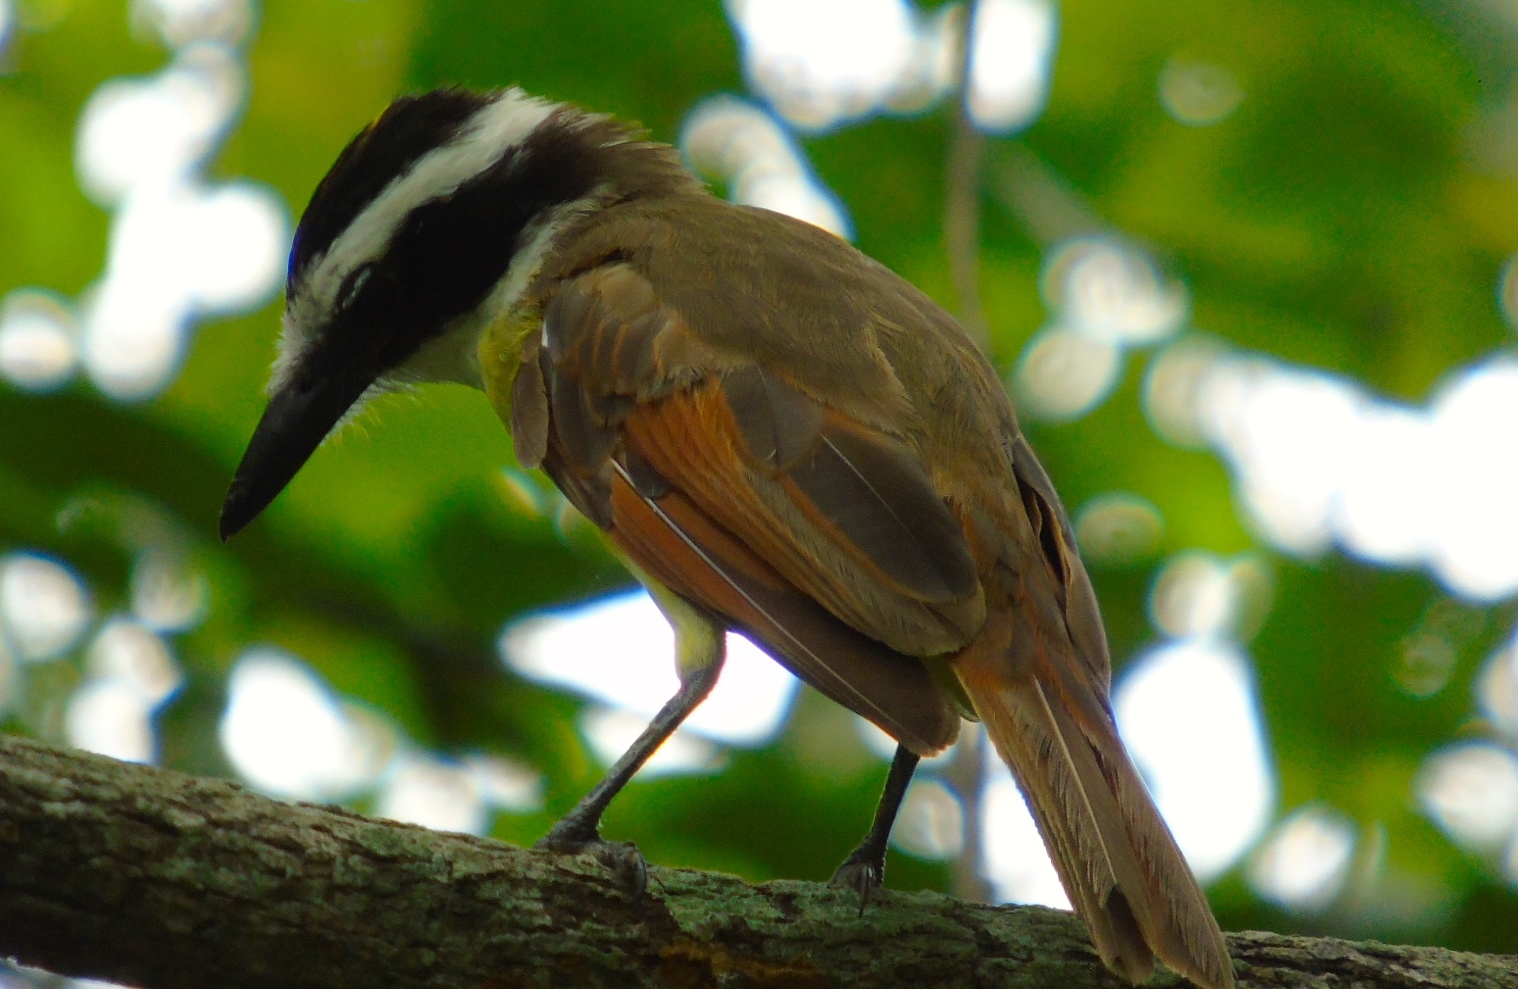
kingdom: Animalia
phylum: Chordata
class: Aves
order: Passeriformes
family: Tyrannidae
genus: Pitangus
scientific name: Pitangus sulphuratus
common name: Great kiskadee
